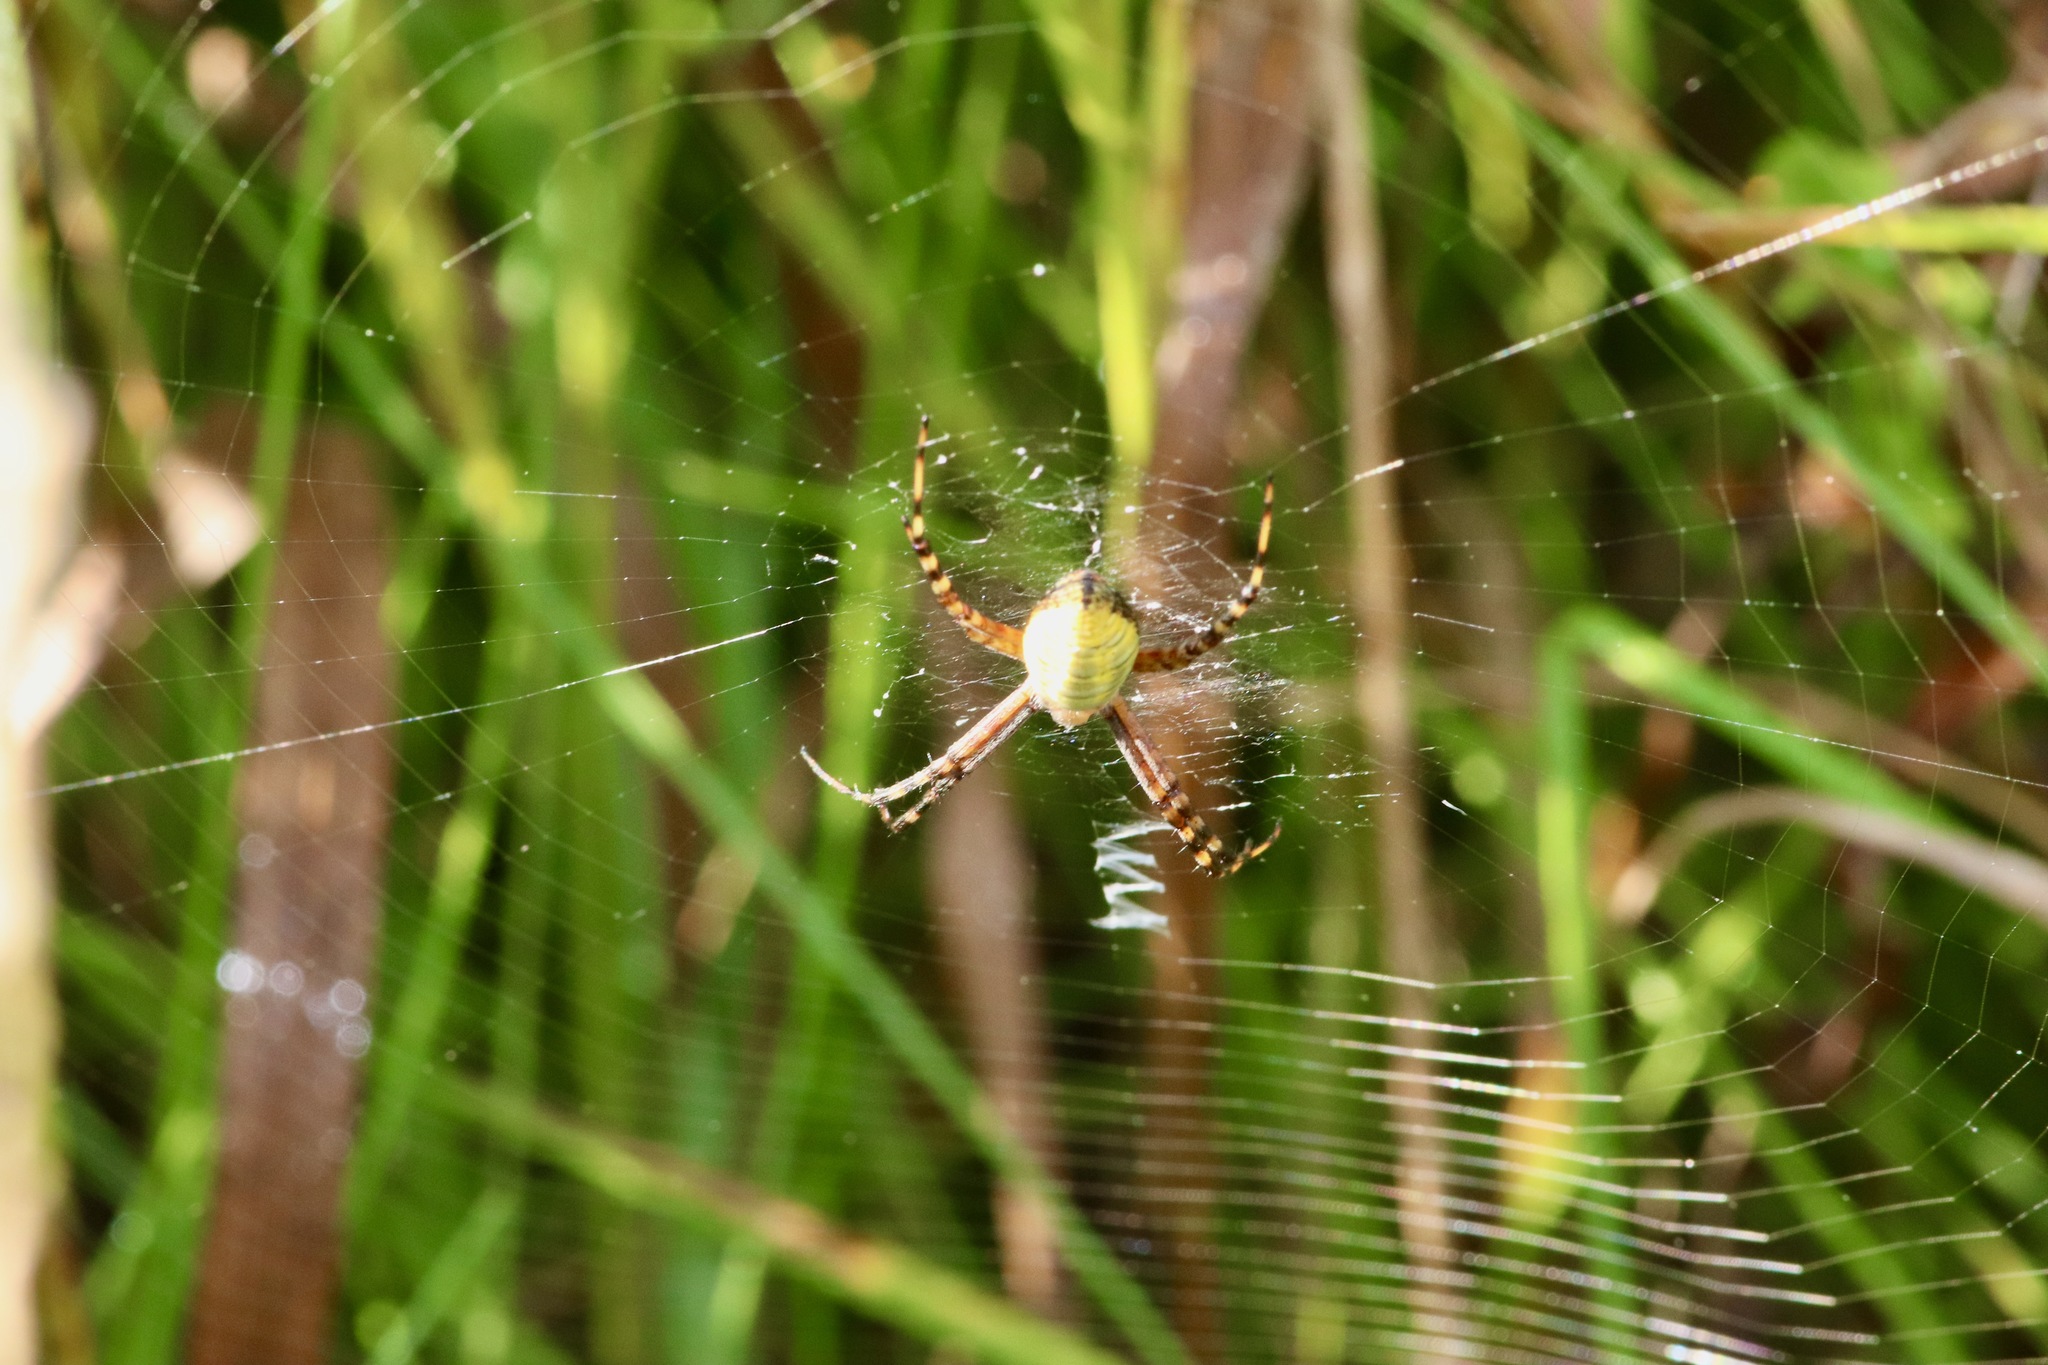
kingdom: Animalia
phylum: Arthropoda
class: Arachnida
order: Araneae
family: Araneidae
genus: Argiope
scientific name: Argiope trifasciata
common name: Banded garden spider
